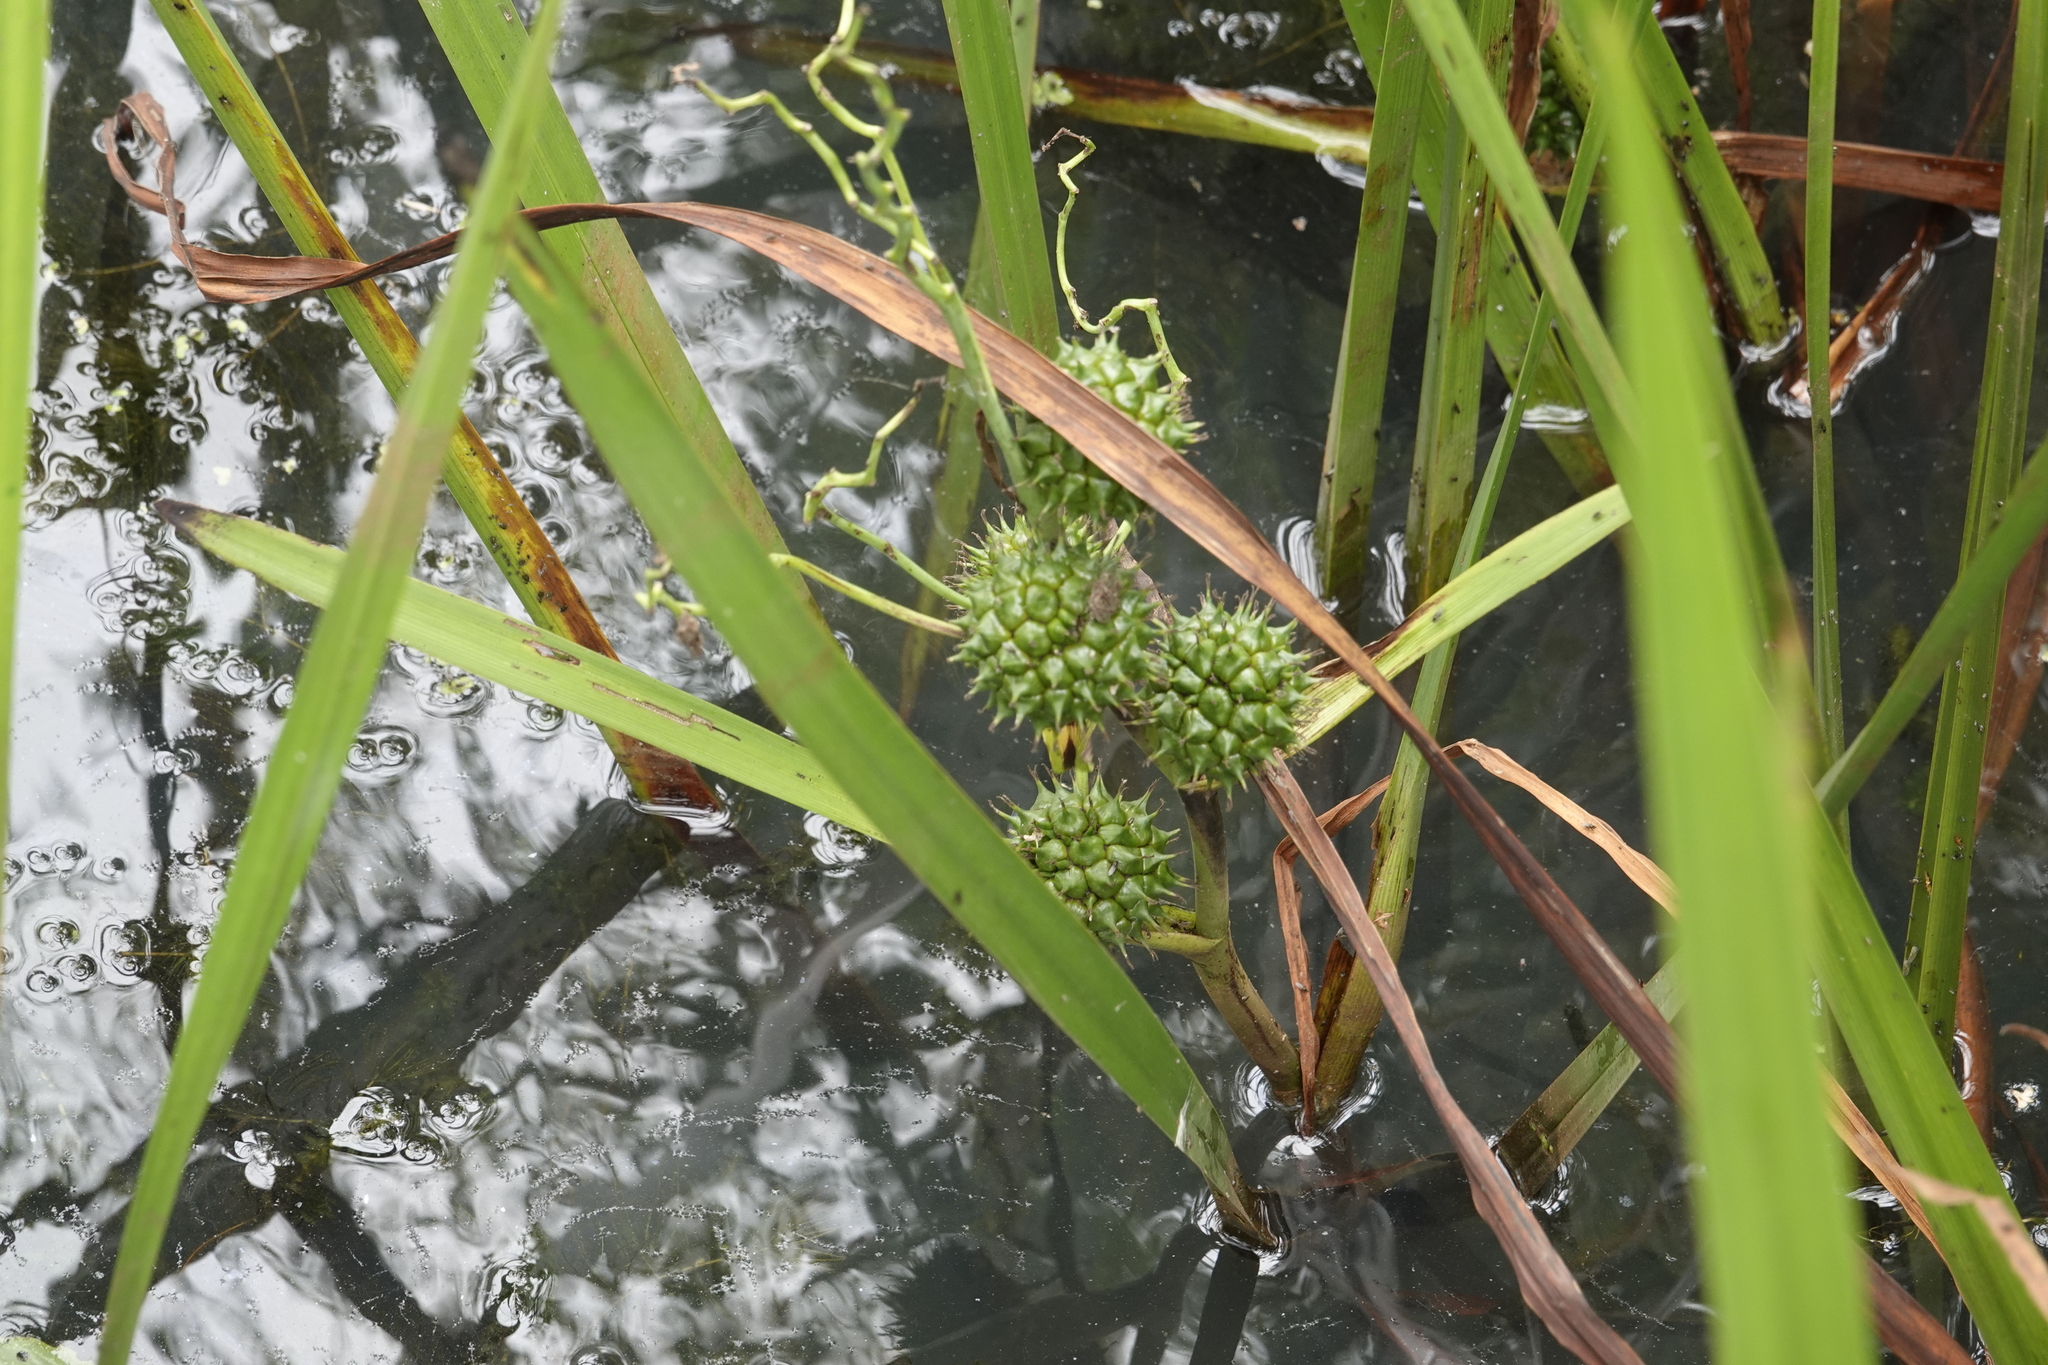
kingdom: Plantae
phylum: Tracheophyta
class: Liliopsida
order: Poales
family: Typhaceae
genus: Sparganium
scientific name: Sparganium eurycarpum
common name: Broad-fruited burreed
